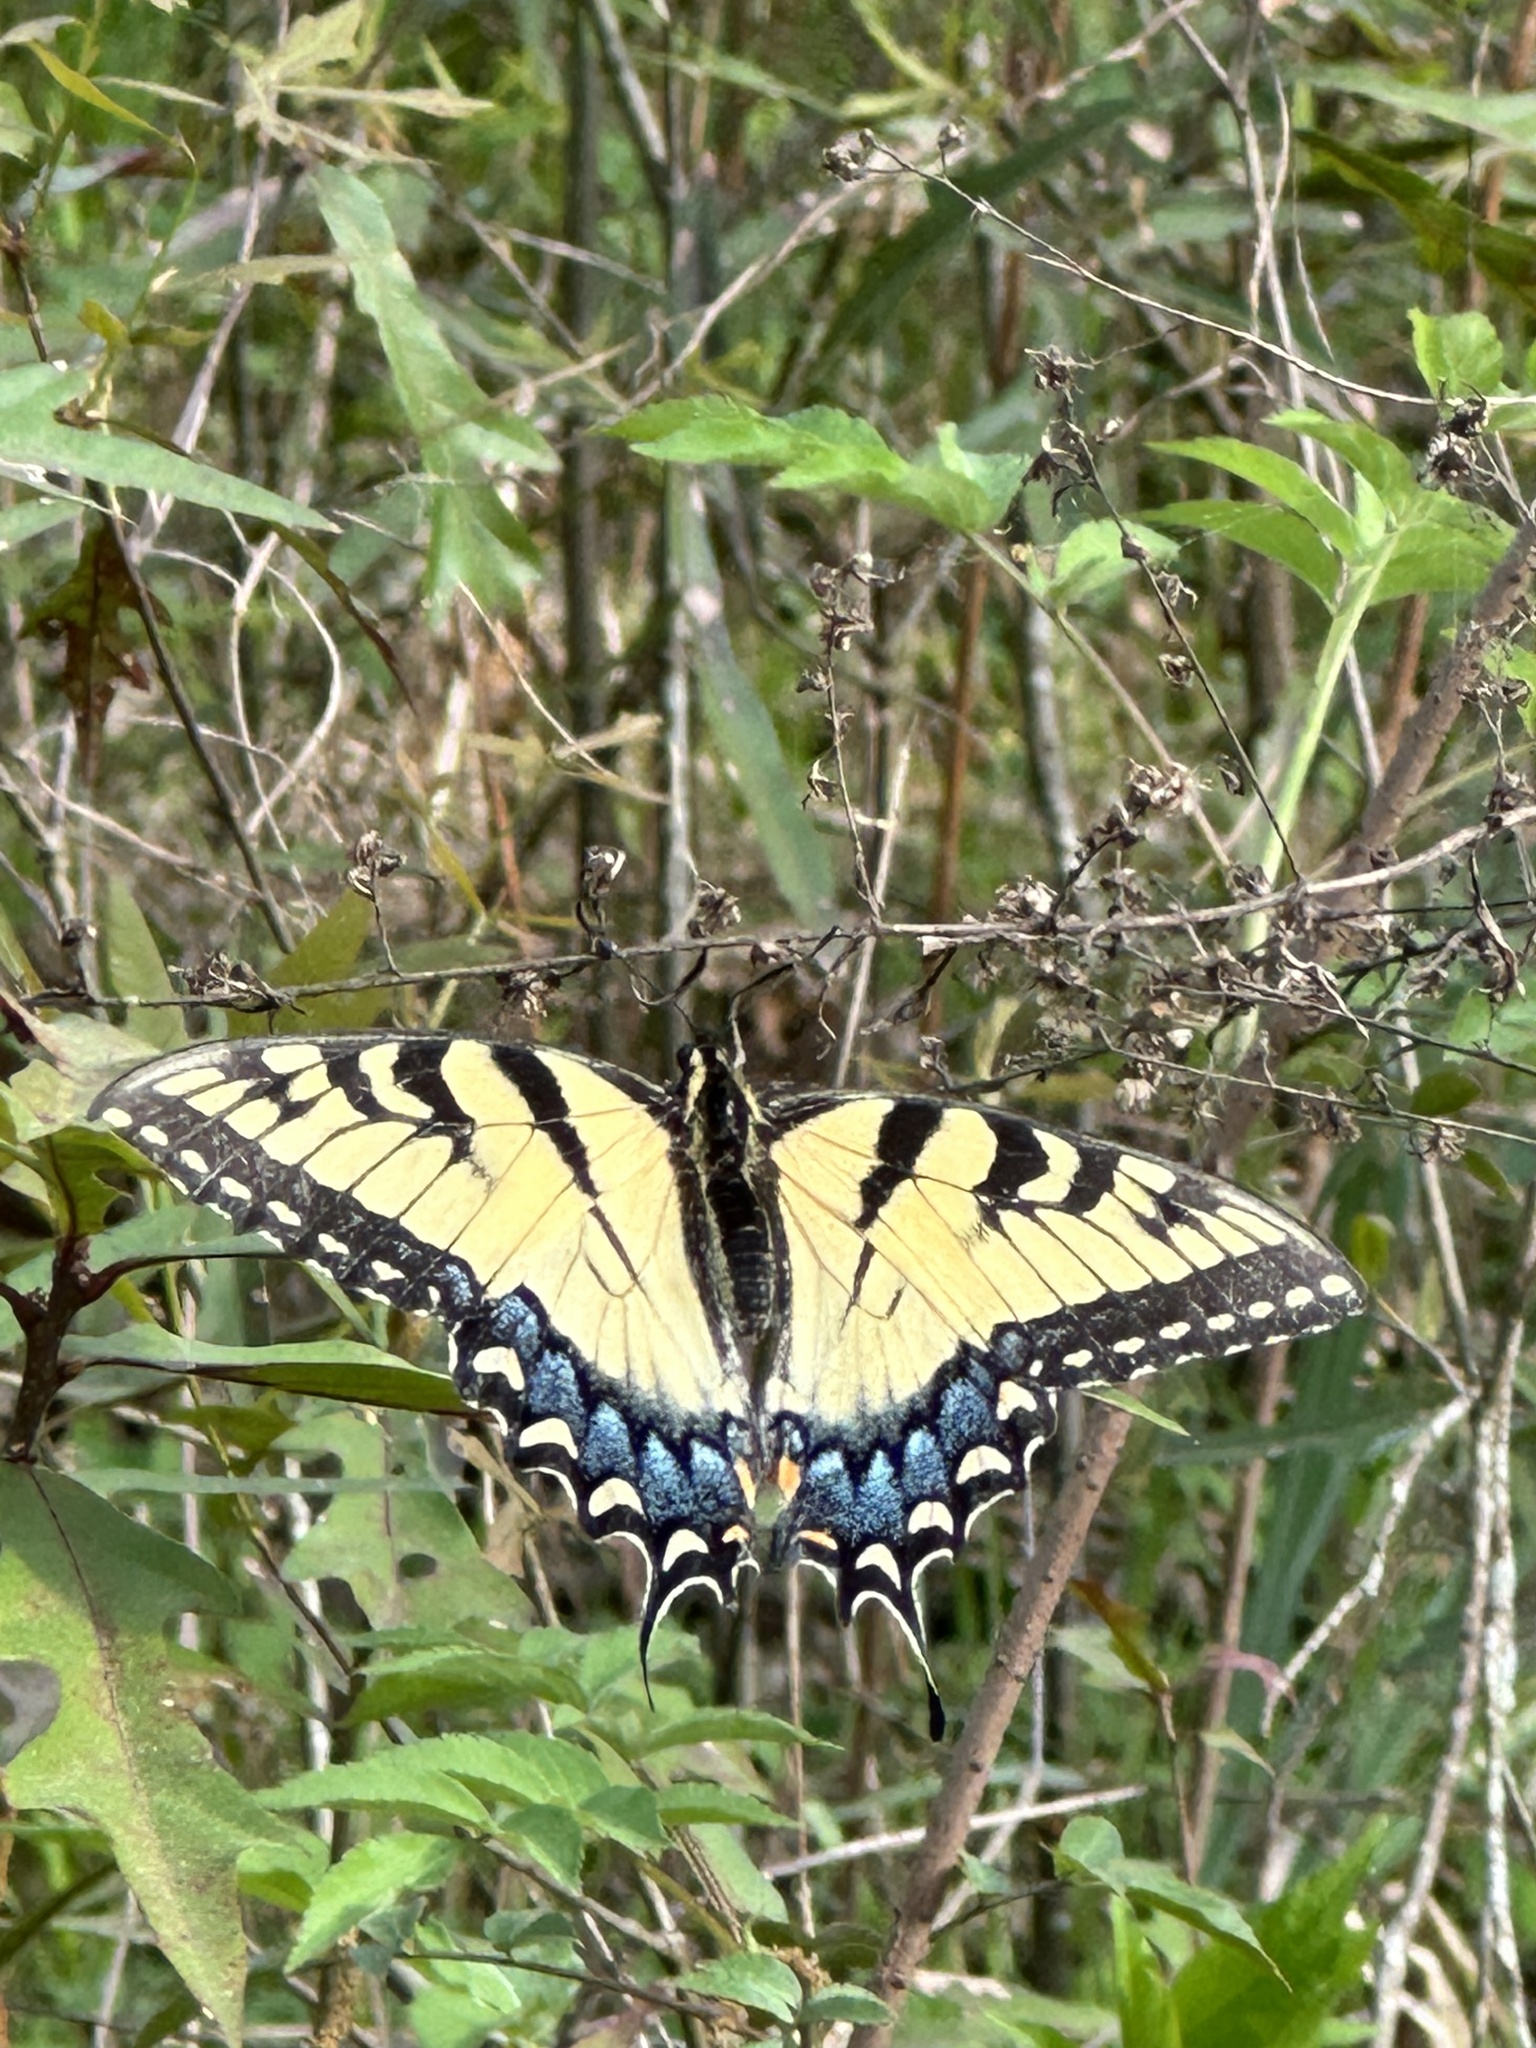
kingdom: Animalia
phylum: Arthropoda
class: Insecta
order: Lepidoptera
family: Papilionidae
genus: Papilio
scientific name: Papilio glaucus
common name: Tiger swallowtail
